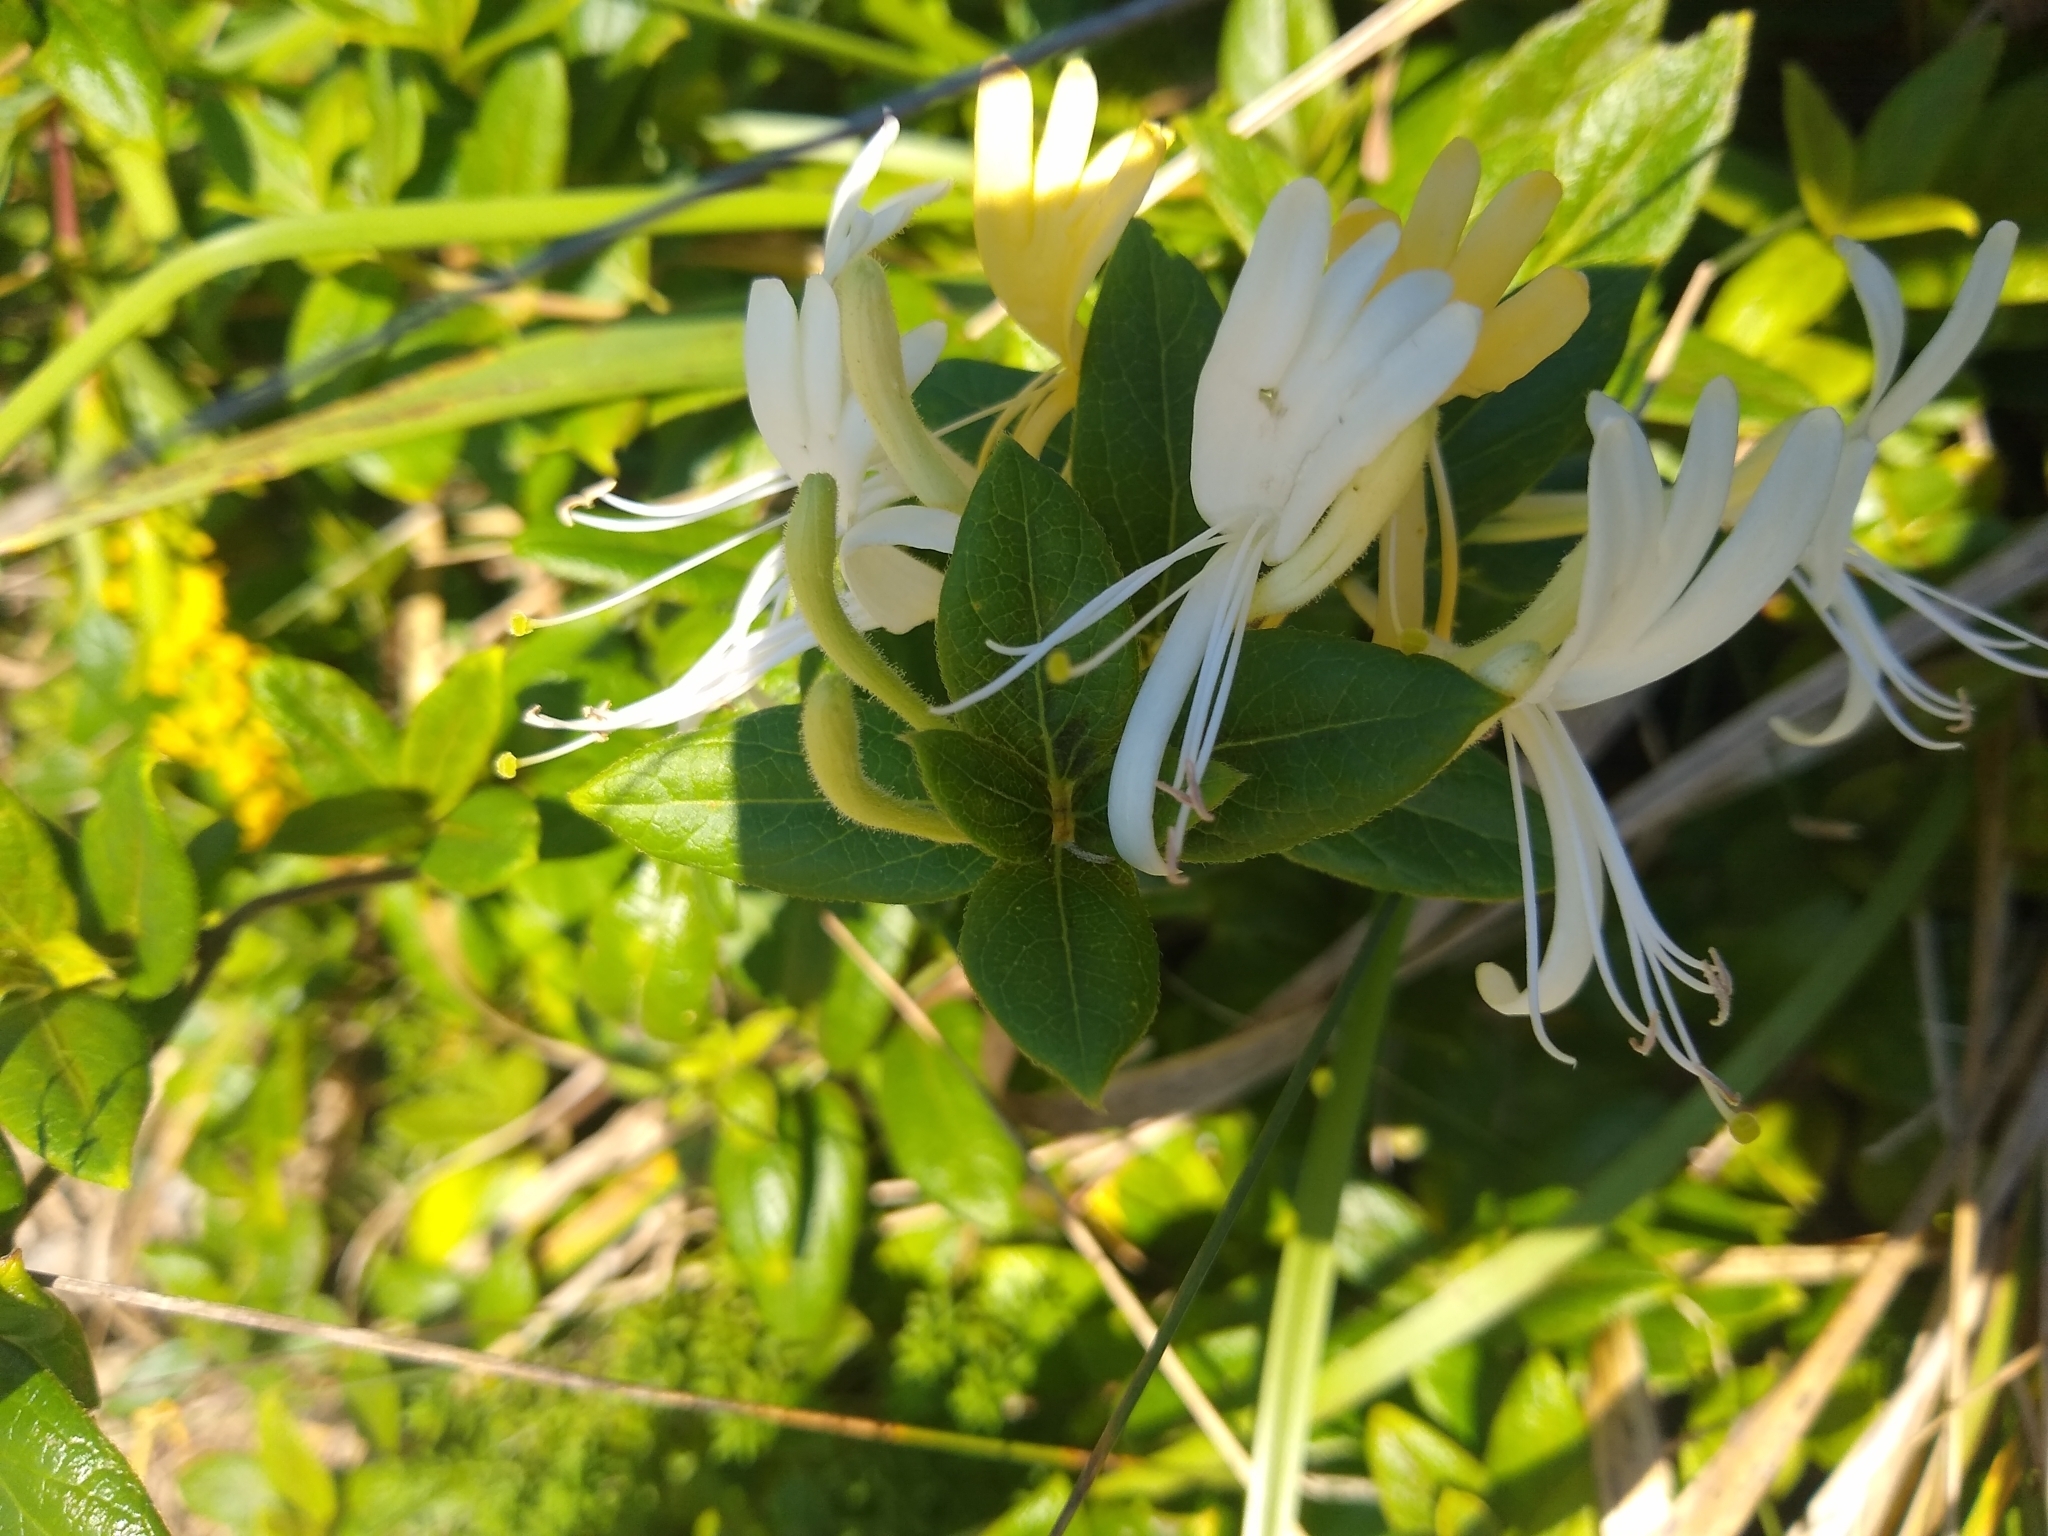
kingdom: Plantae
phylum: Tracheophyta
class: Magnoliopsida
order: Dipsacales
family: Caprifoliaceae
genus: Lonicera
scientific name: Lonicera japonica
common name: Japanese honeysuckle
